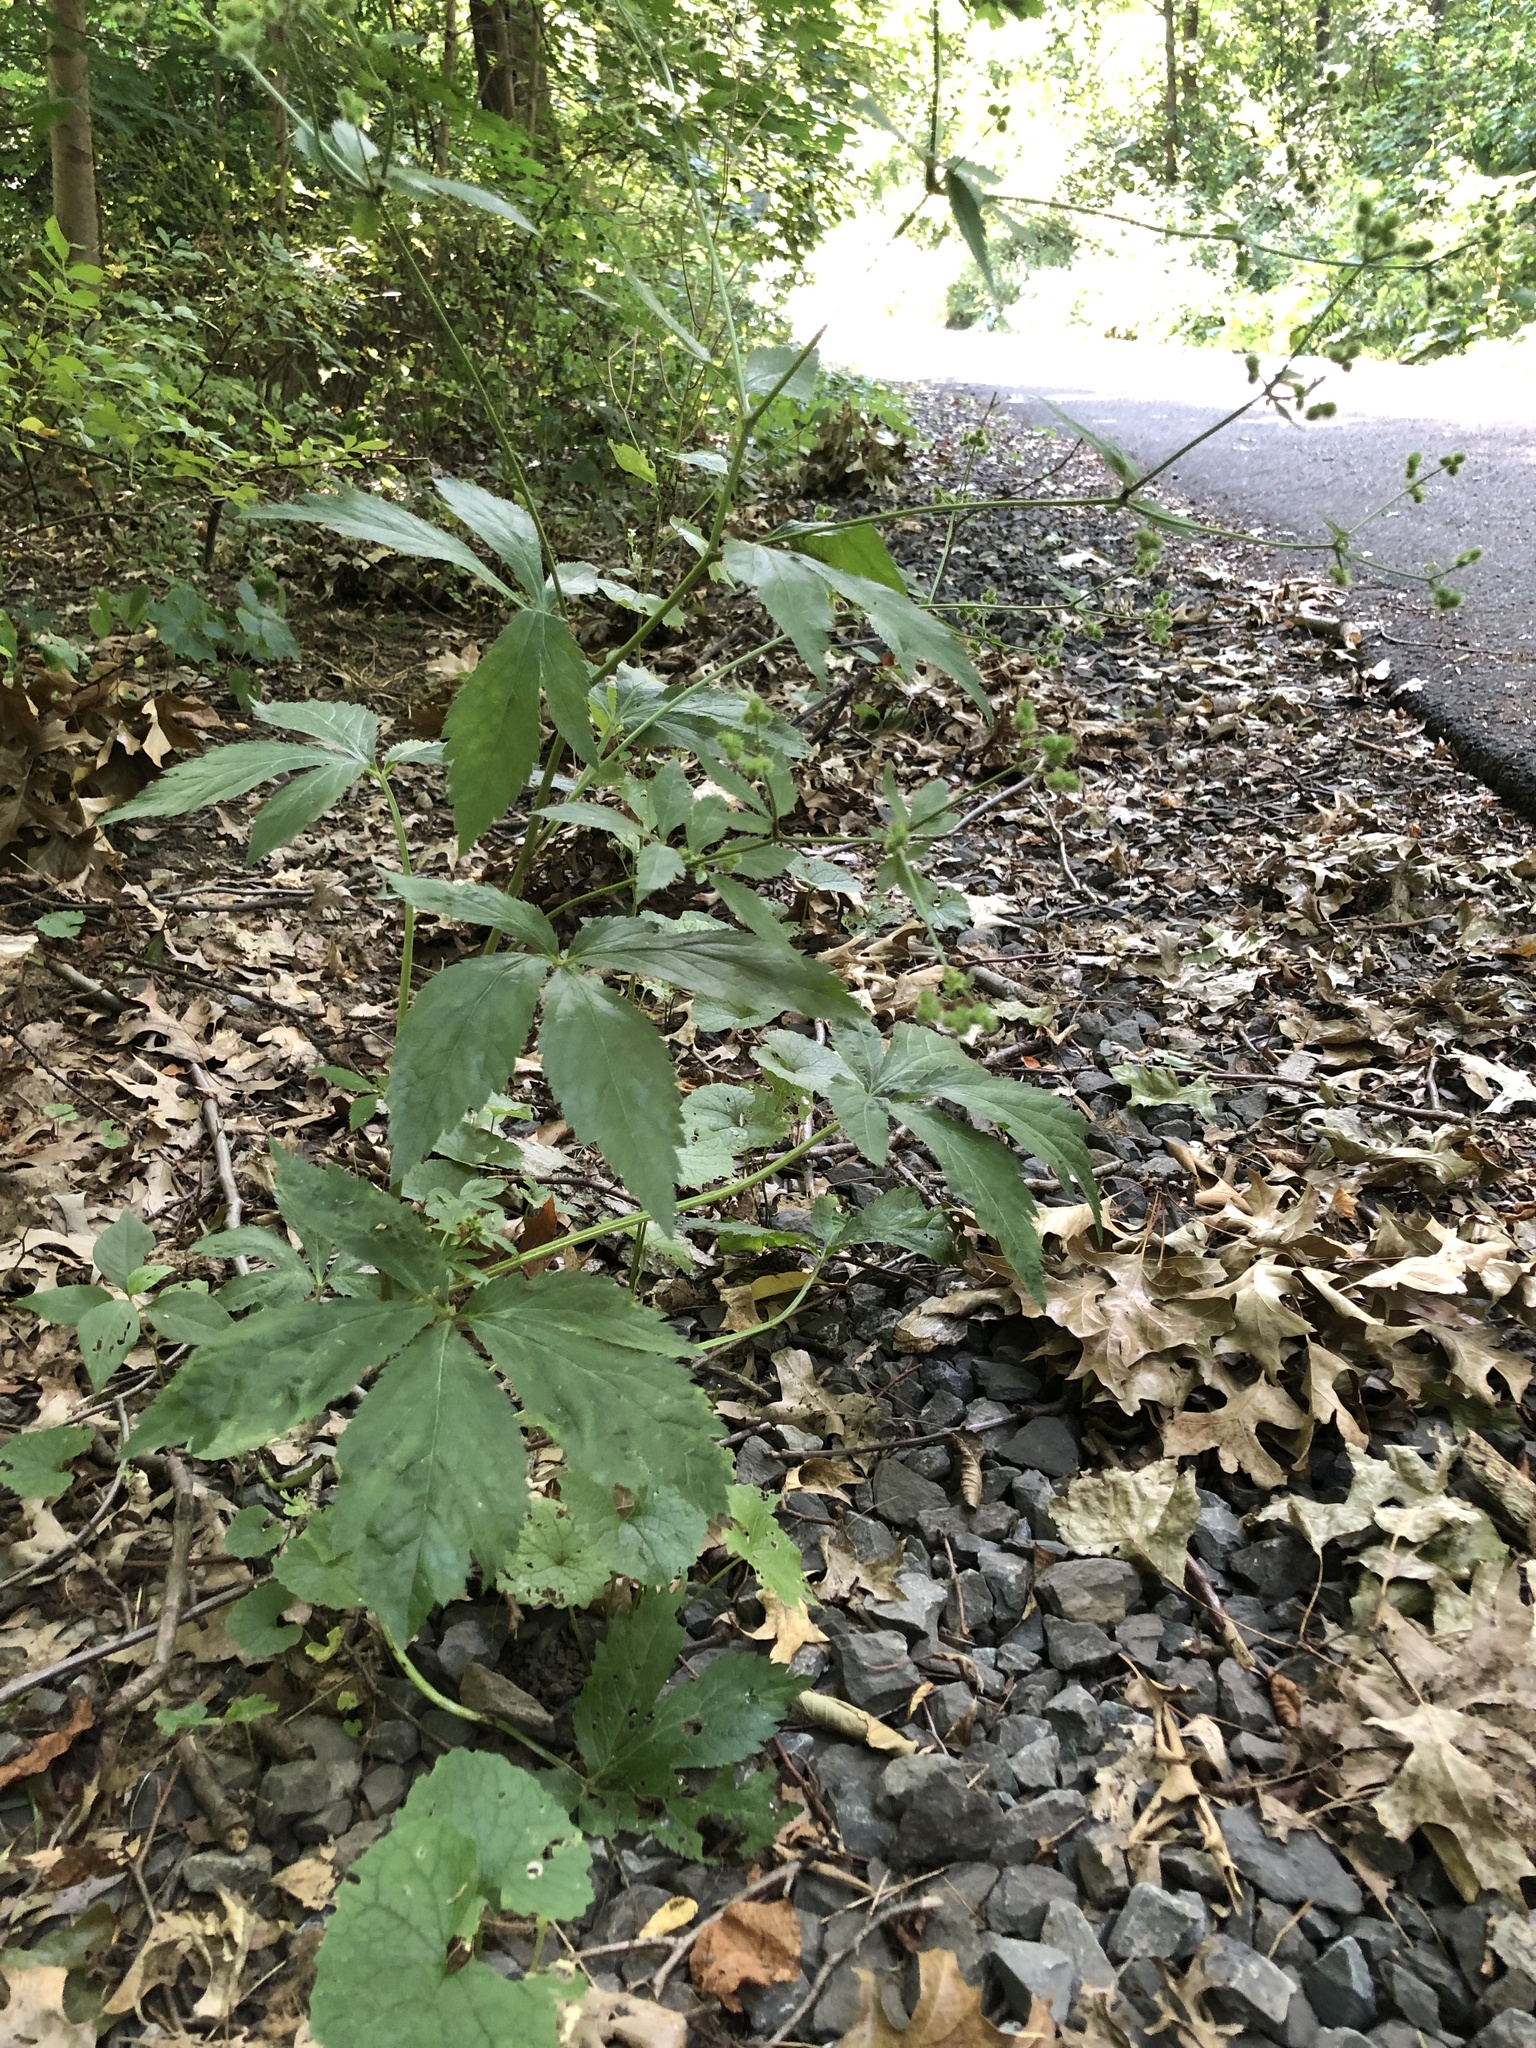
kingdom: Plantae
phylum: Tracheophyta
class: Magnoliopsida
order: Apiales
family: Apiaceae
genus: Sanicula
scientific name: Sanicula canadensis
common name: Canada sanicle
